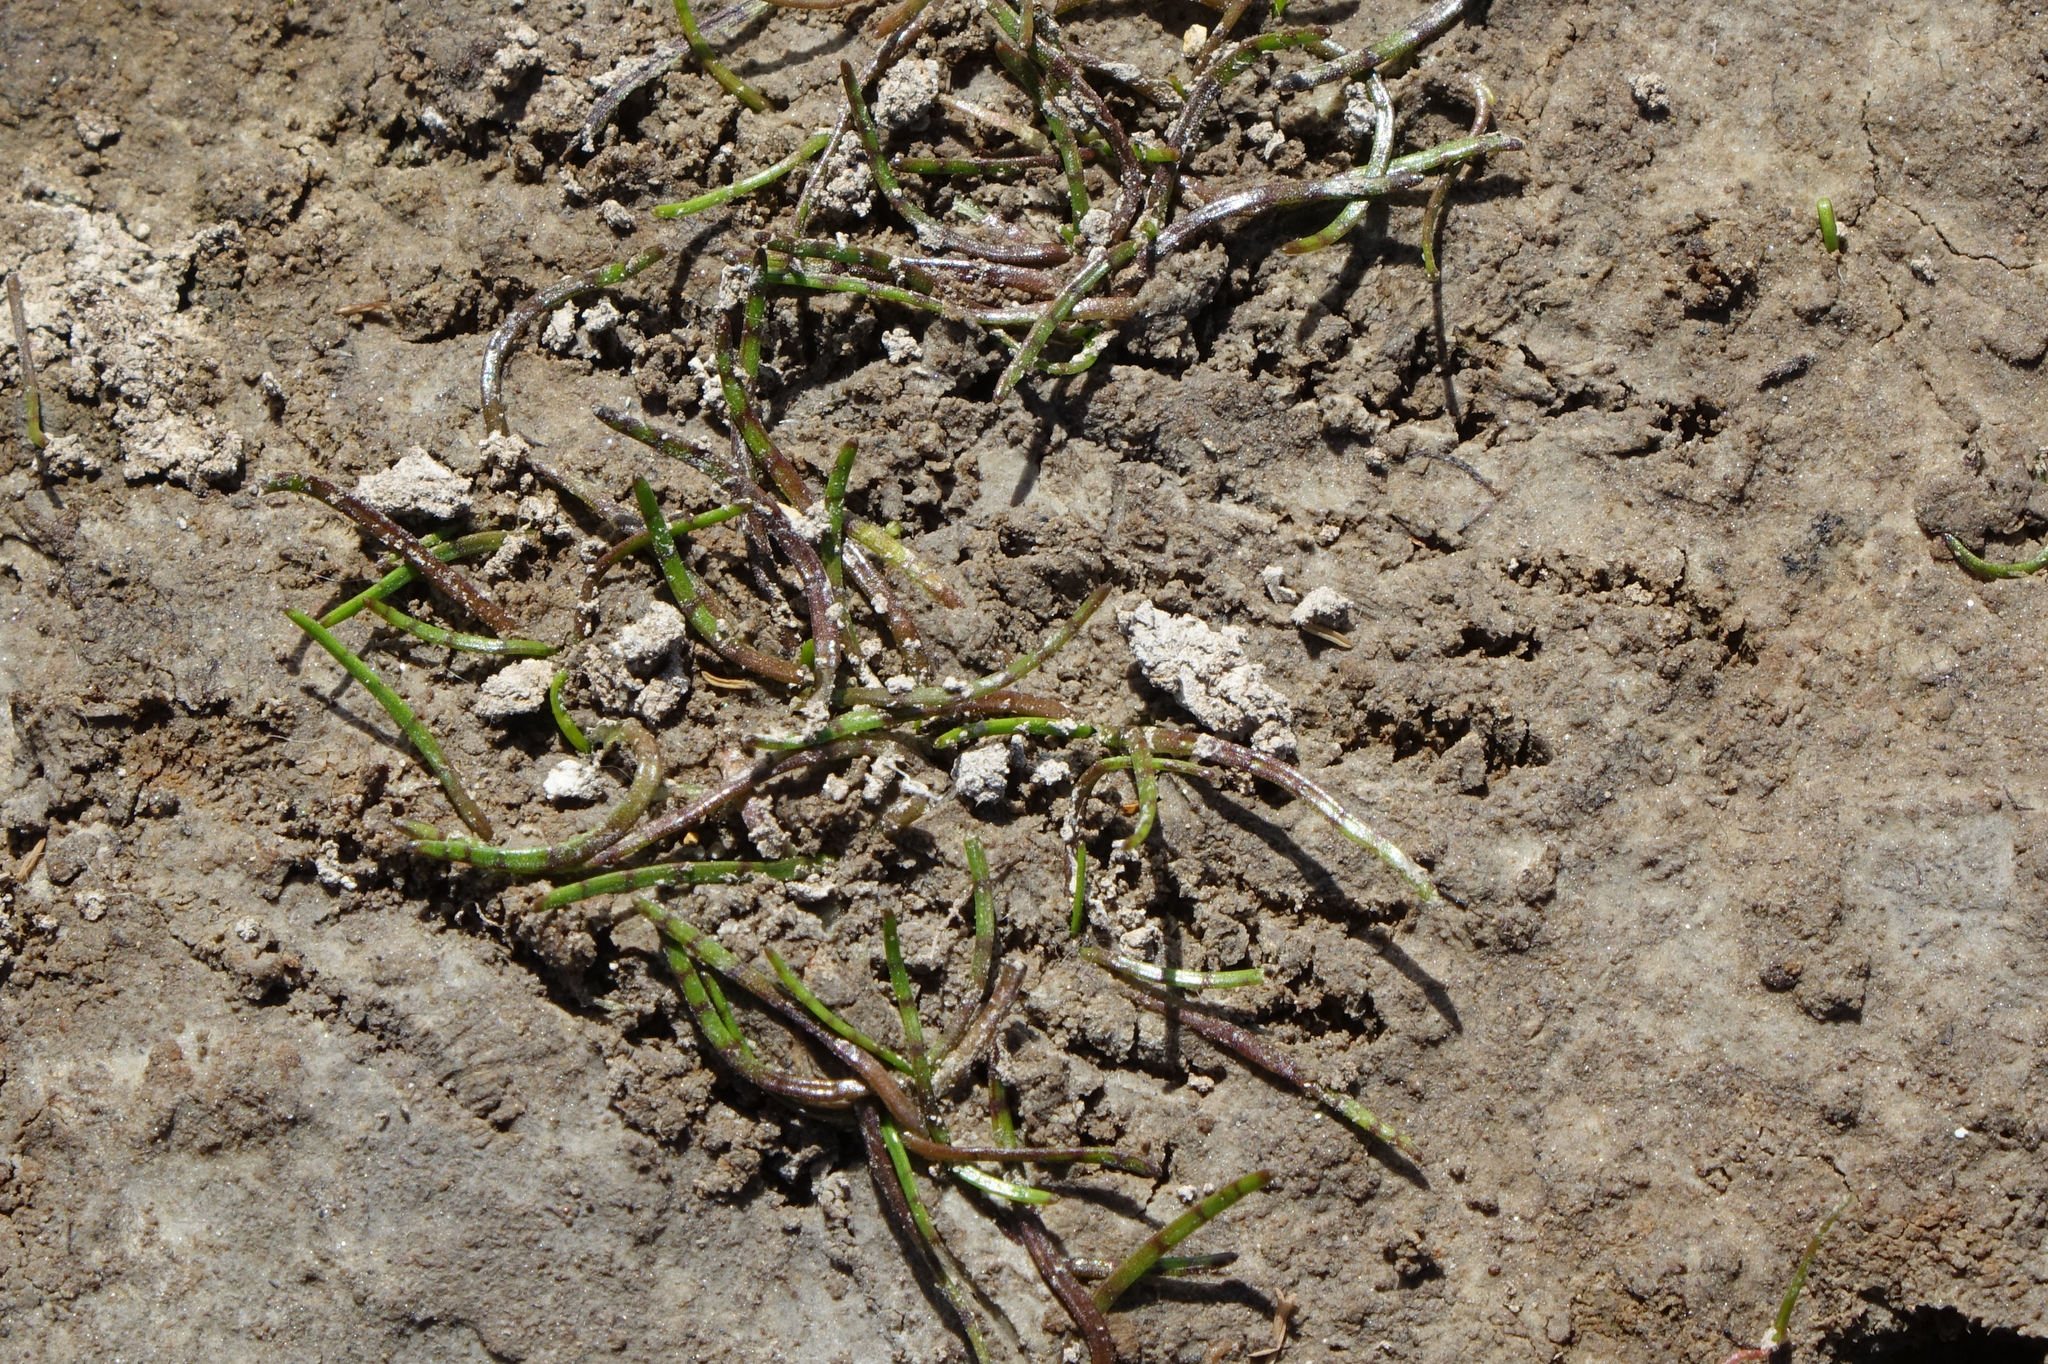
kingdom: Plantae
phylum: Tracheophyta
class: Magnoliopsida
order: Apiales
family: Apiaceae
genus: Lilaeopsis
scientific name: Lilaeopsis novae-zelandiae
